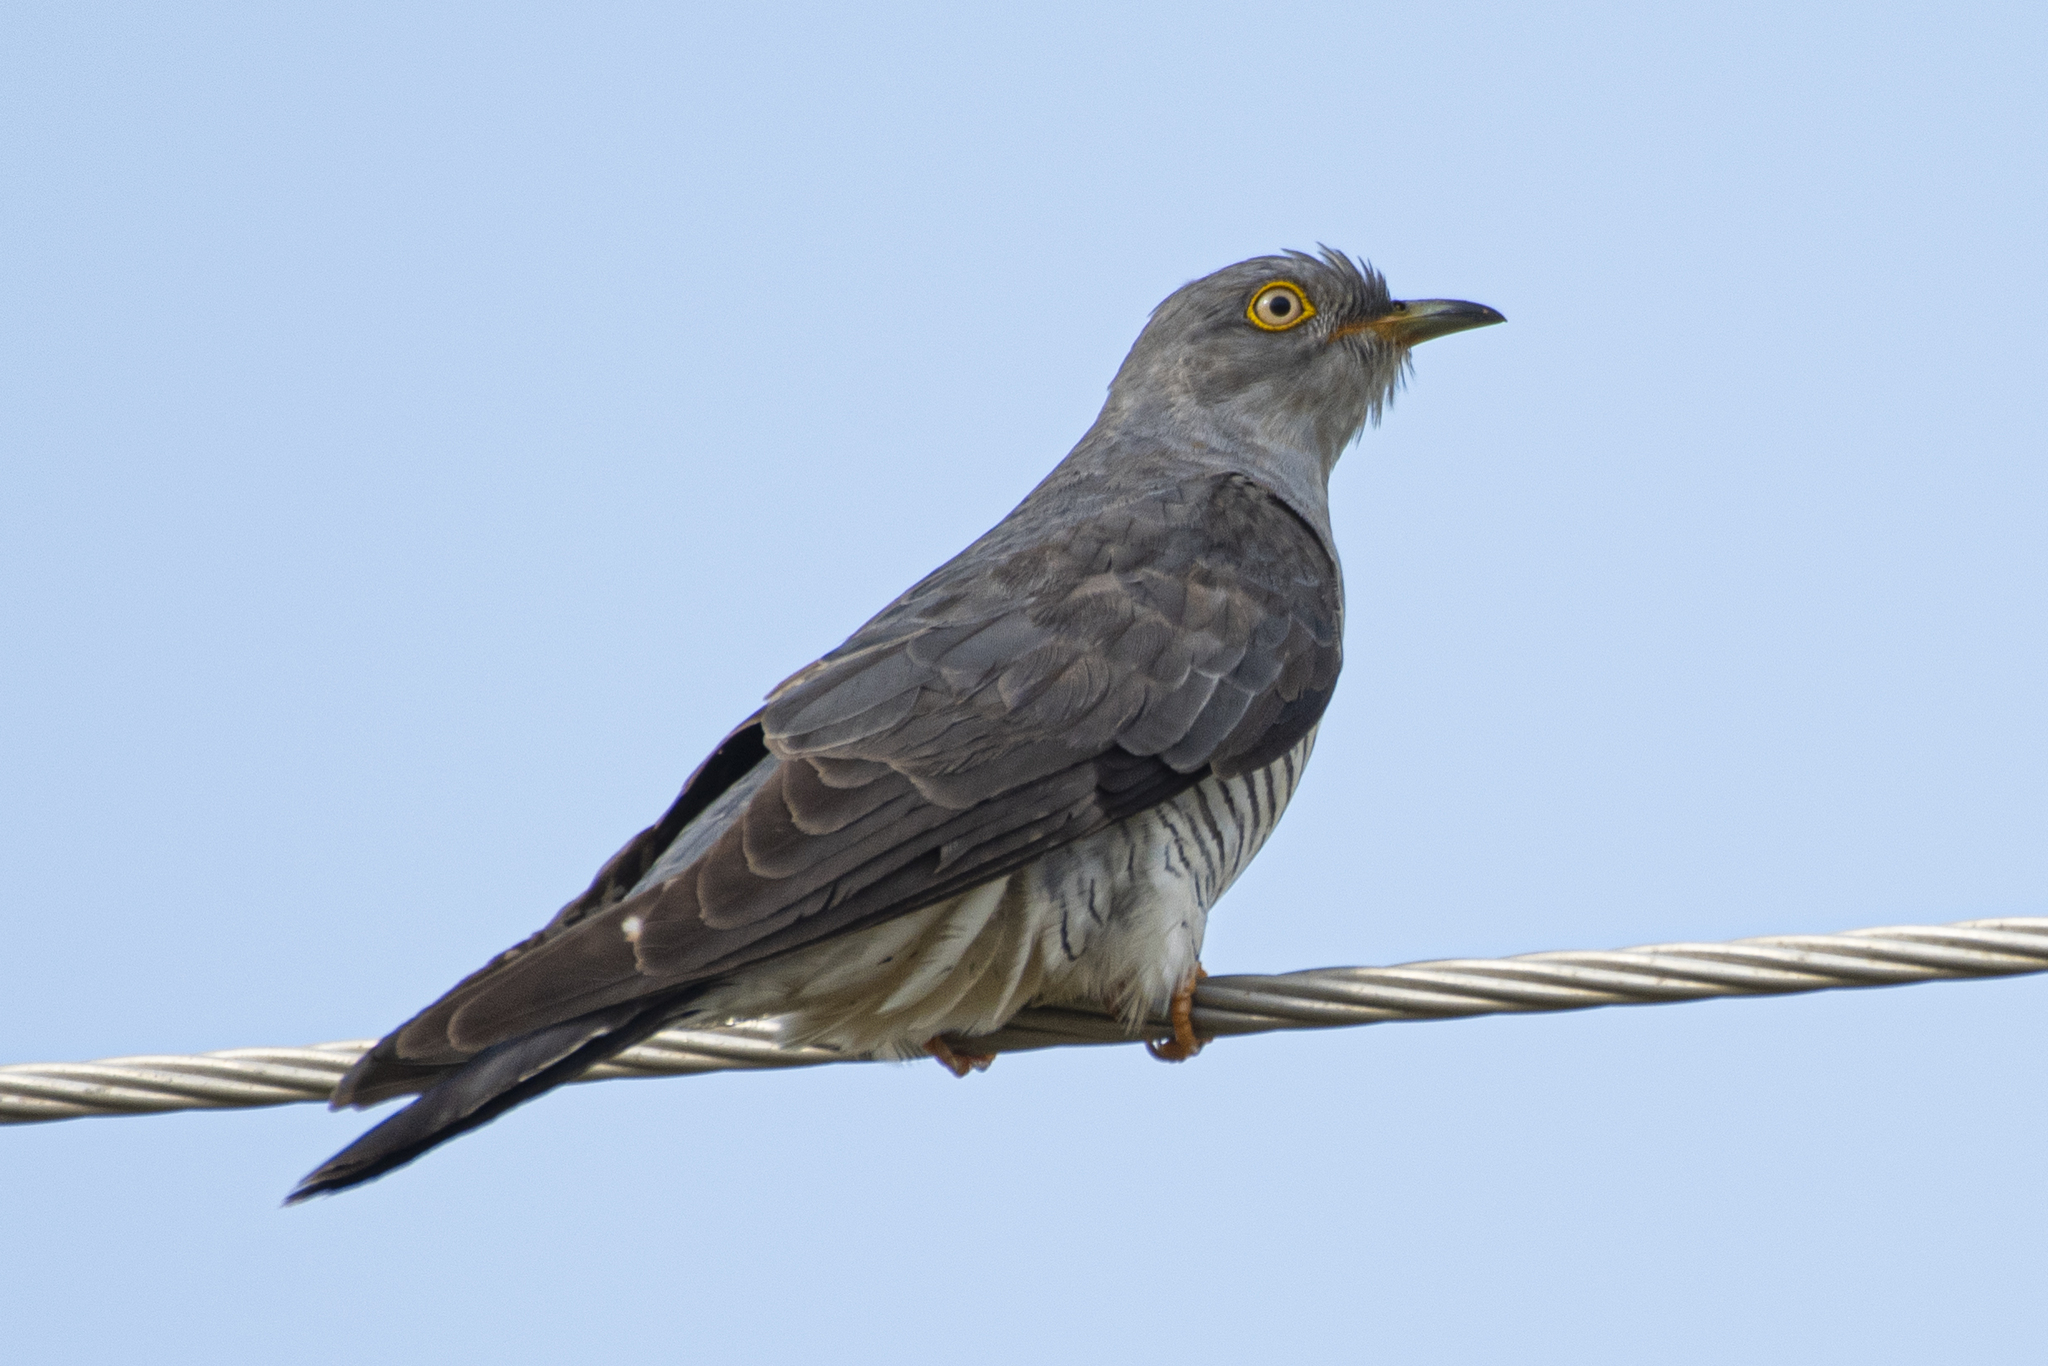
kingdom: Animalia
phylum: Chordata
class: Aves
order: Cuculiformes
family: Cuculidae
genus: Cuculus
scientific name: Cuculus canorus
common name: Common cuckoo
